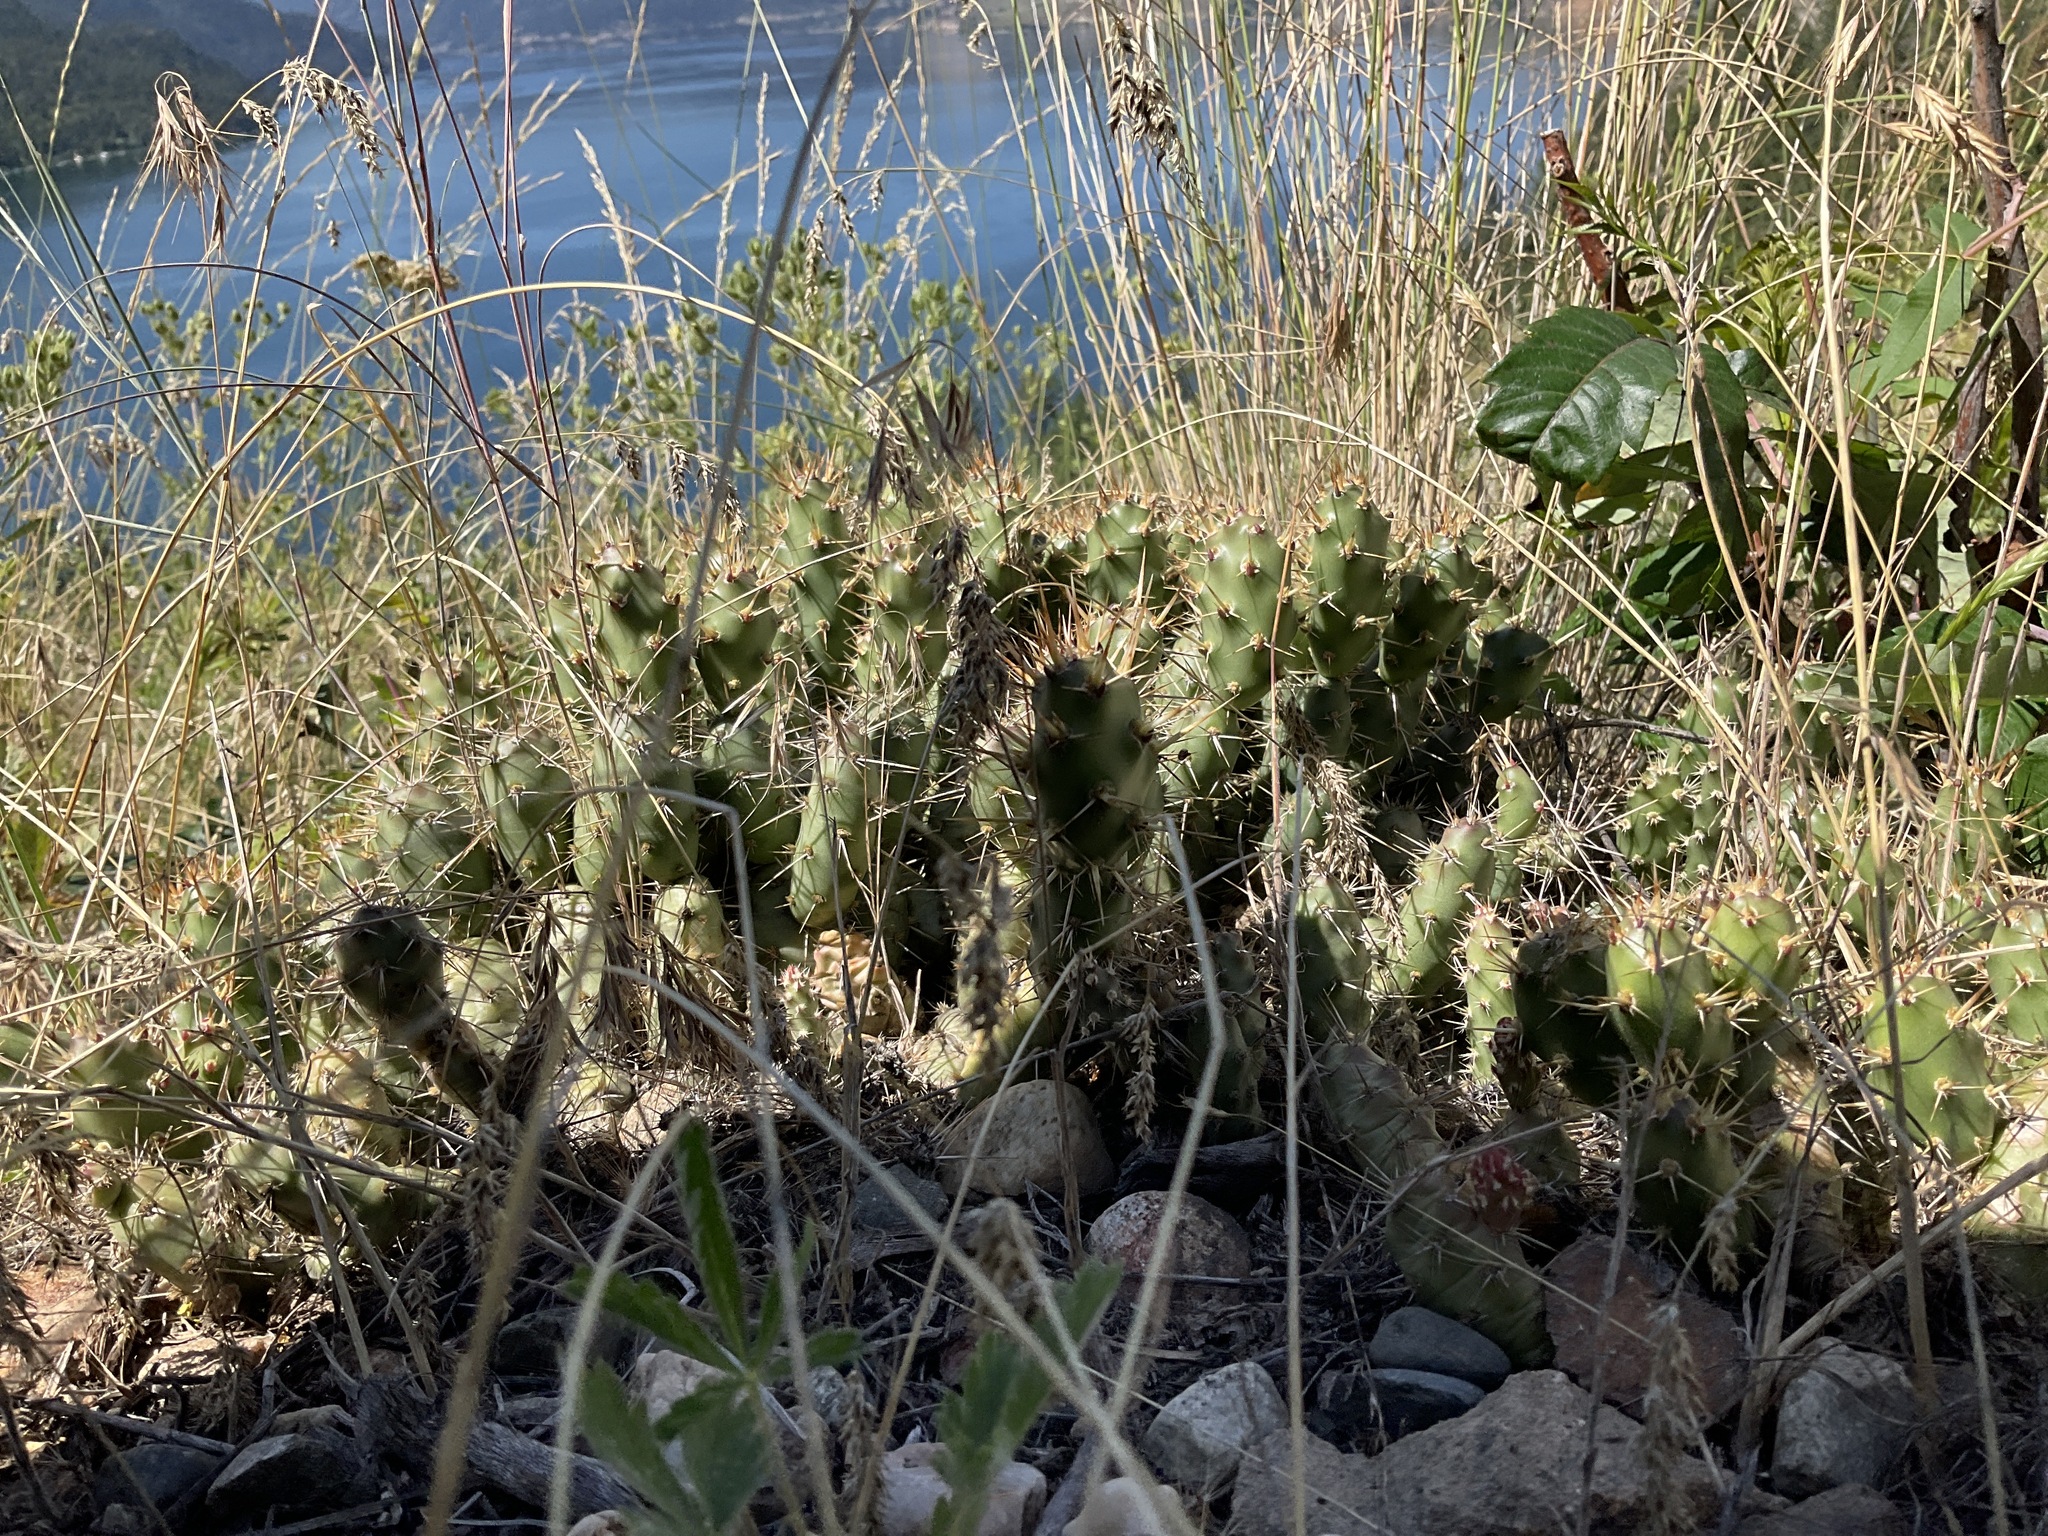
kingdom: Plantae
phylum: Tracheophyta
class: Magnoliopsida
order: Caryophyllales
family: Cactaceae
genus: Opuntia
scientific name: Opuntia fragilis
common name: Brittle cactus
